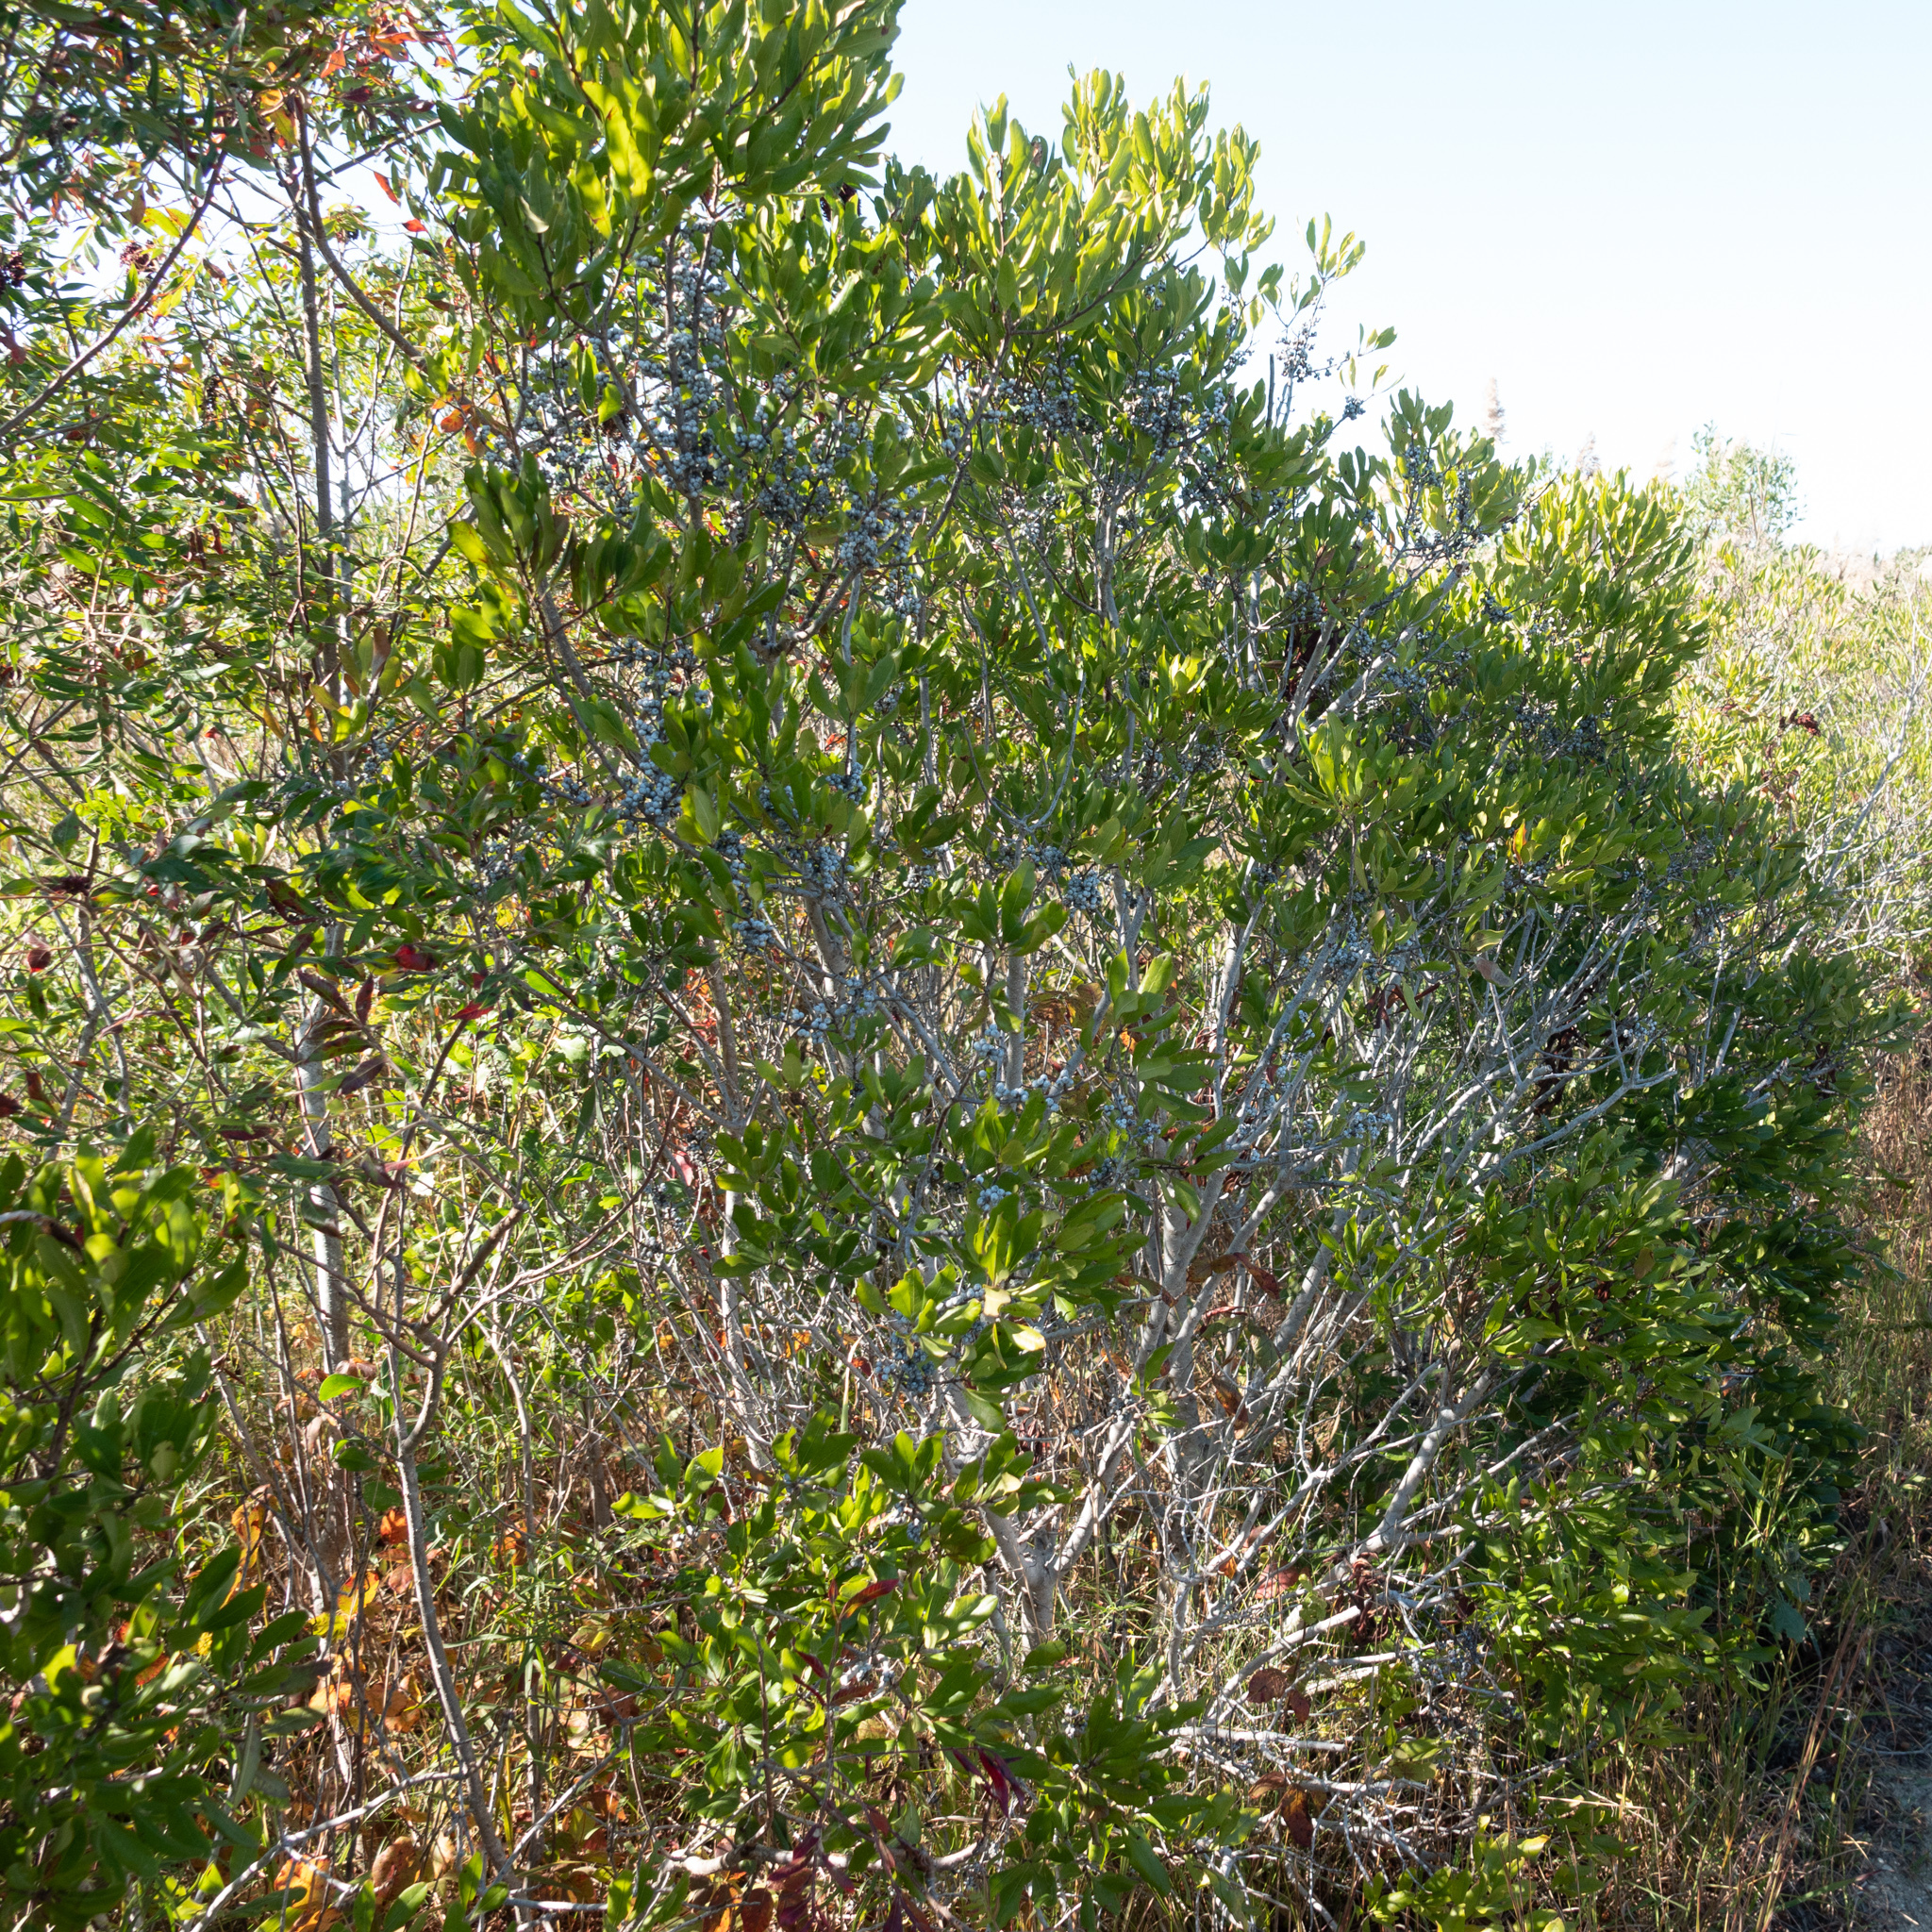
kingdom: Plantae
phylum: Tracheophyta
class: Magnoliopsida
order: Fagales
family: Myricaceae
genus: Morella
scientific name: Morella pensylvanica
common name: Northern bayberry
